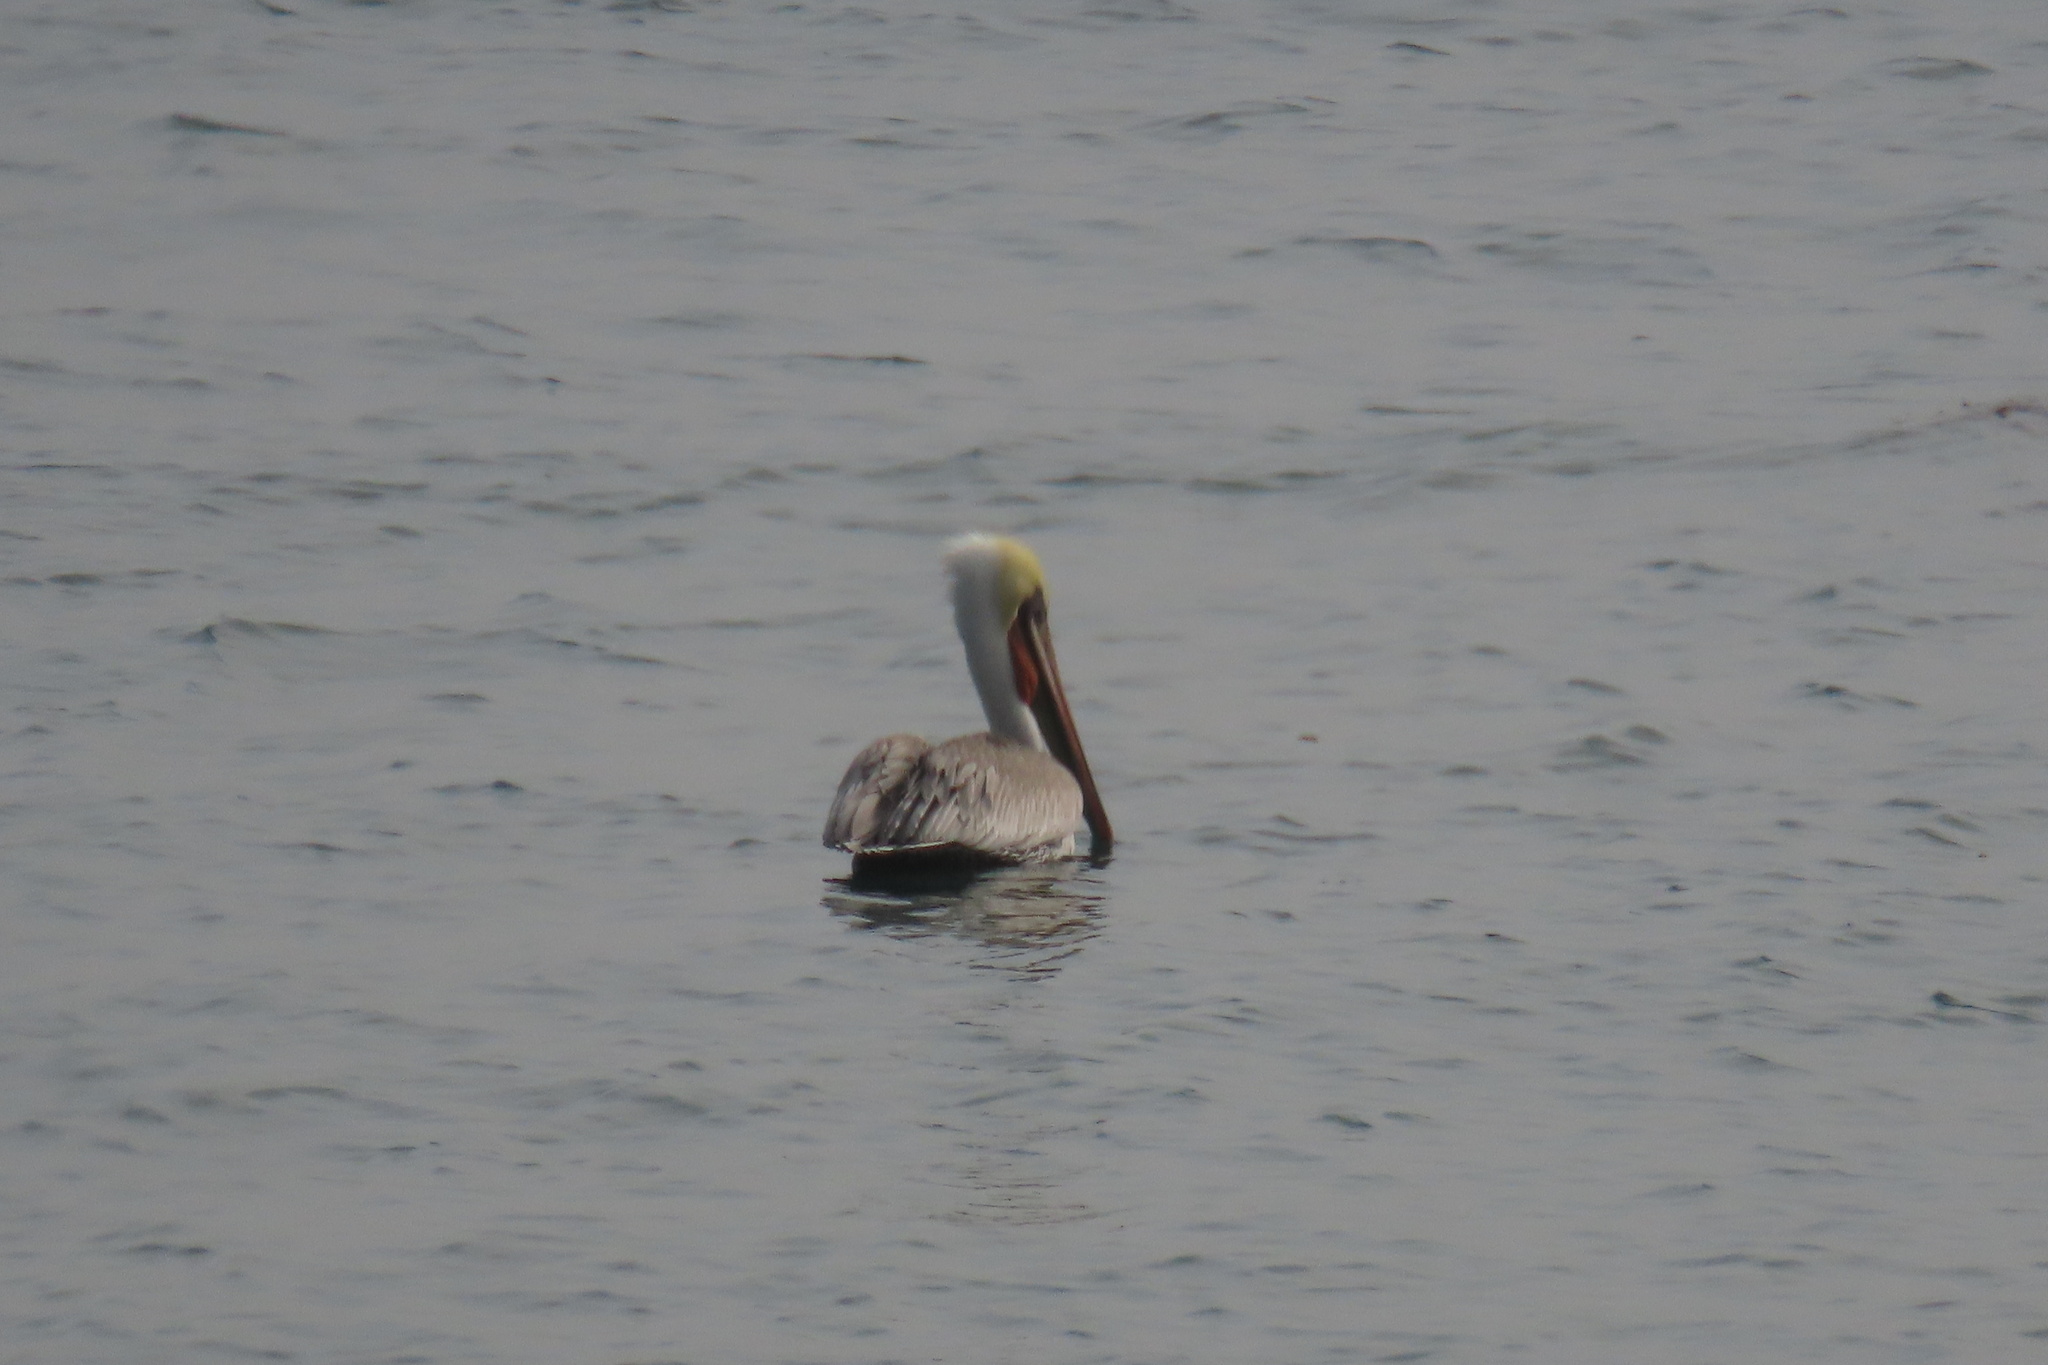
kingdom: Animalia
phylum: Chordata
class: Aves
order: Pelecaniformes
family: Pelecanidae
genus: Pelecanus
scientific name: Pelecanus occidentalis
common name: Brown pelican
